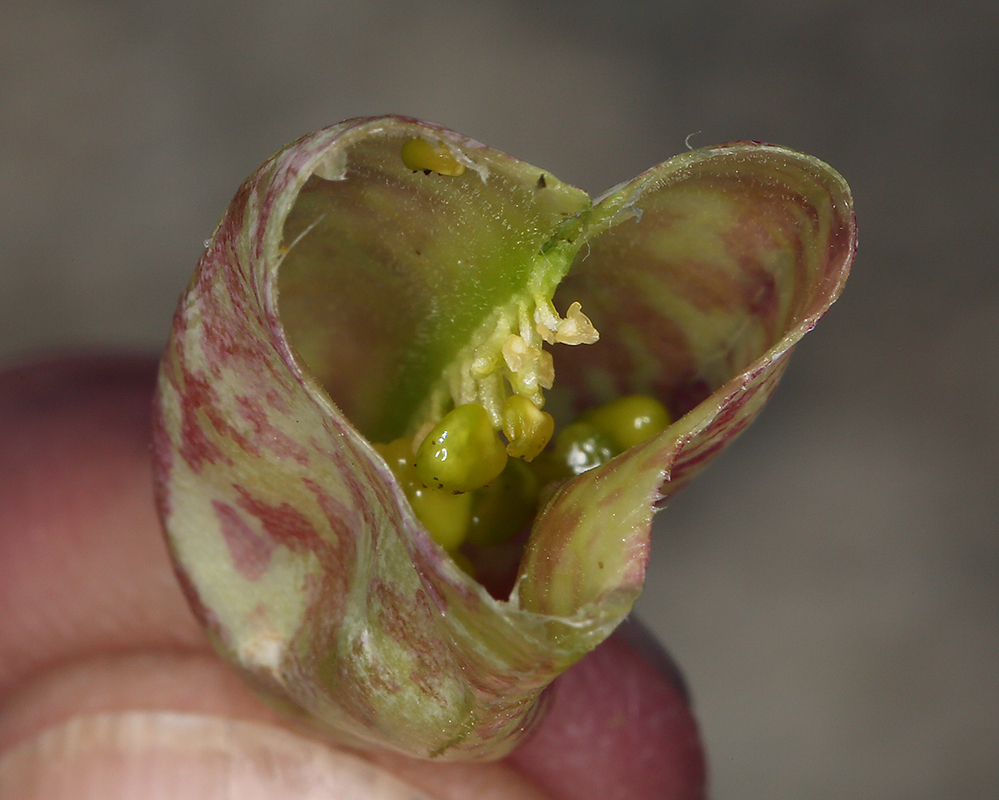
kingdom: Plantae
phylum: Tracheophyta
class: Magnoliopsida
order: Fabales
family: Fabaceae
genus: Astragalus
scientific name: Astragalus oophorus
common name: Egg milkvetch
